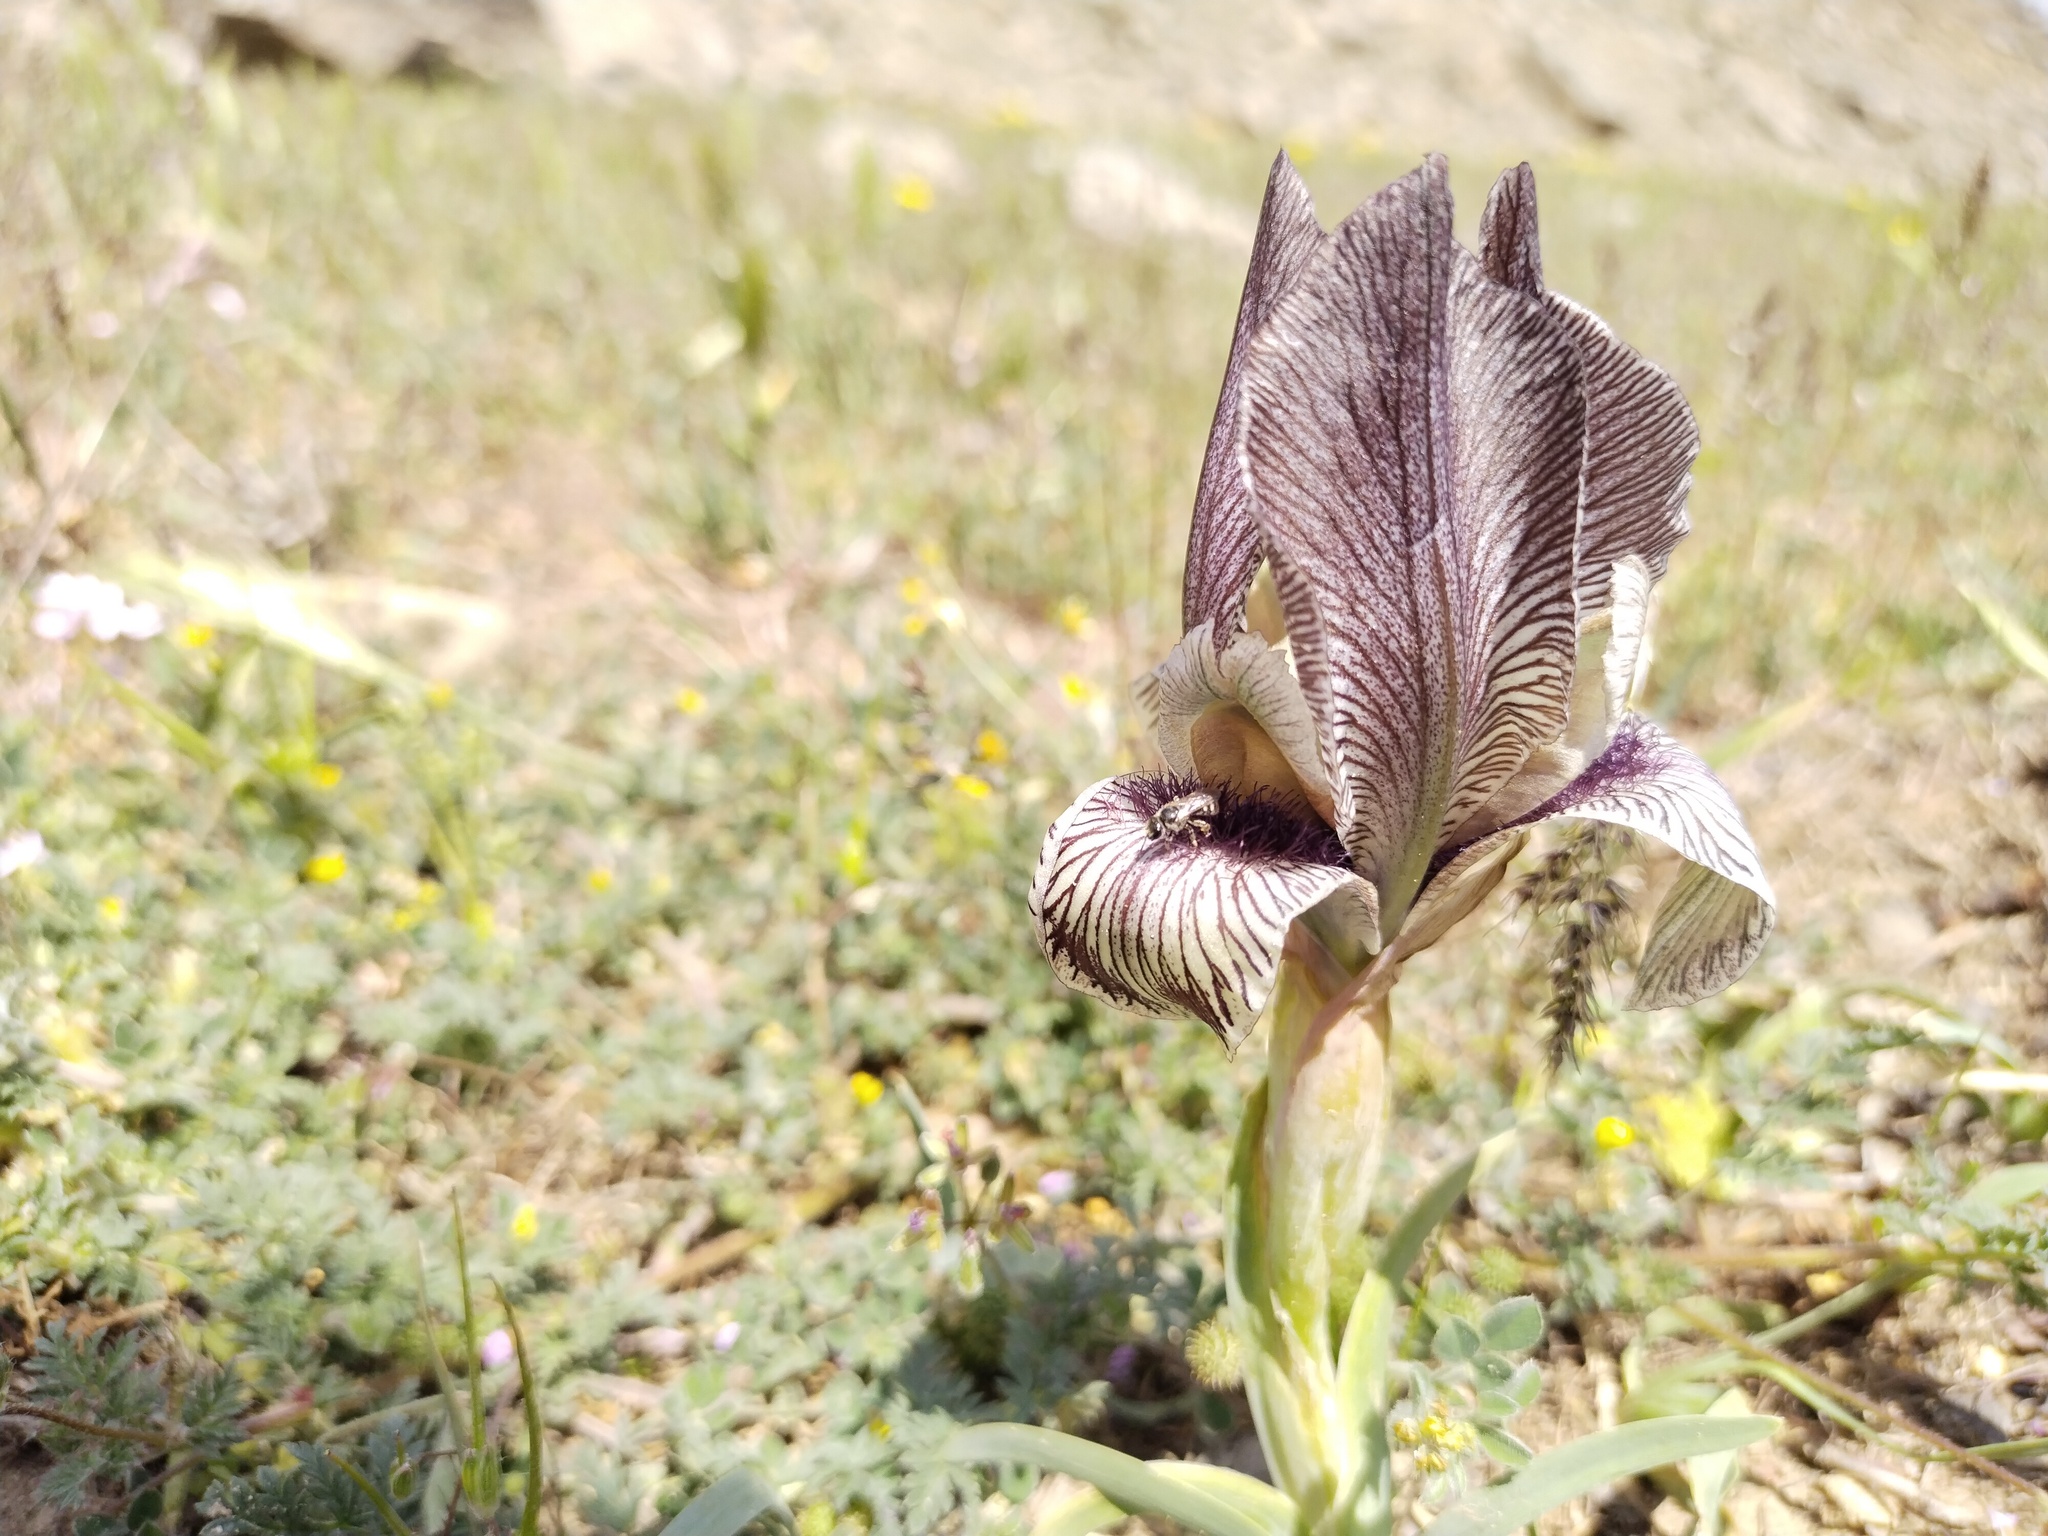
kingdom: Plantae
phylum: Tracheophyta
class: Liliopsida
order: Asparagales
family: Iridaceae
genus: Iris
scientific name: Iris acutiloba
